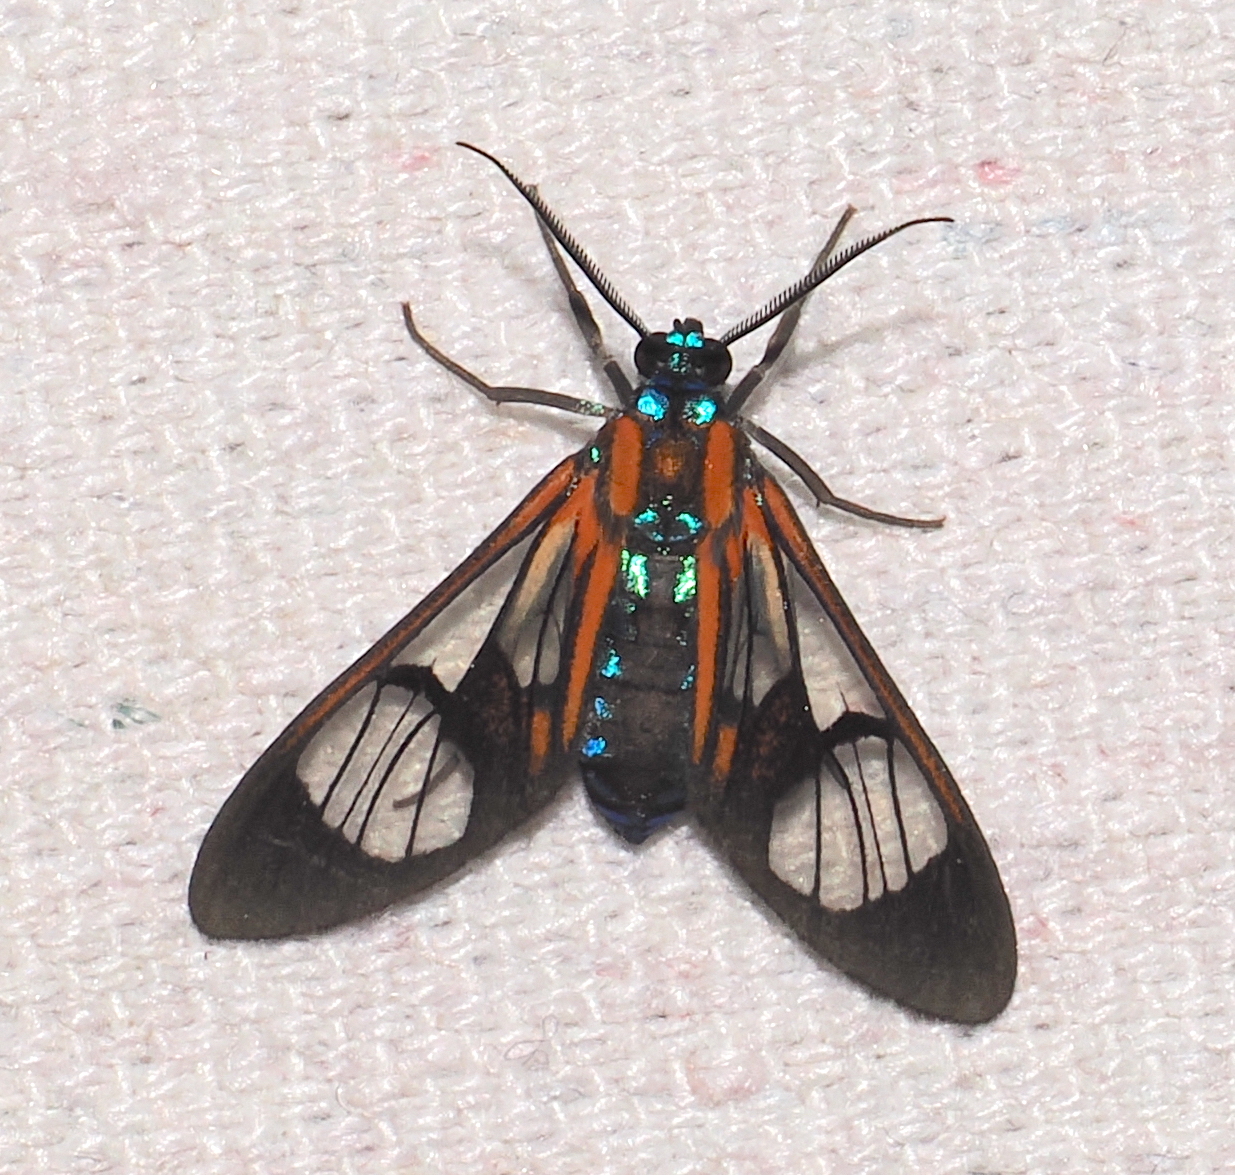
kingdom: Animalia
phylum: Arthropoda
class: Insecta
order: Lepidoptera
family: Erebidae
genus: Cosmosoma
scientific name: Cosmosoma anoxanthia
